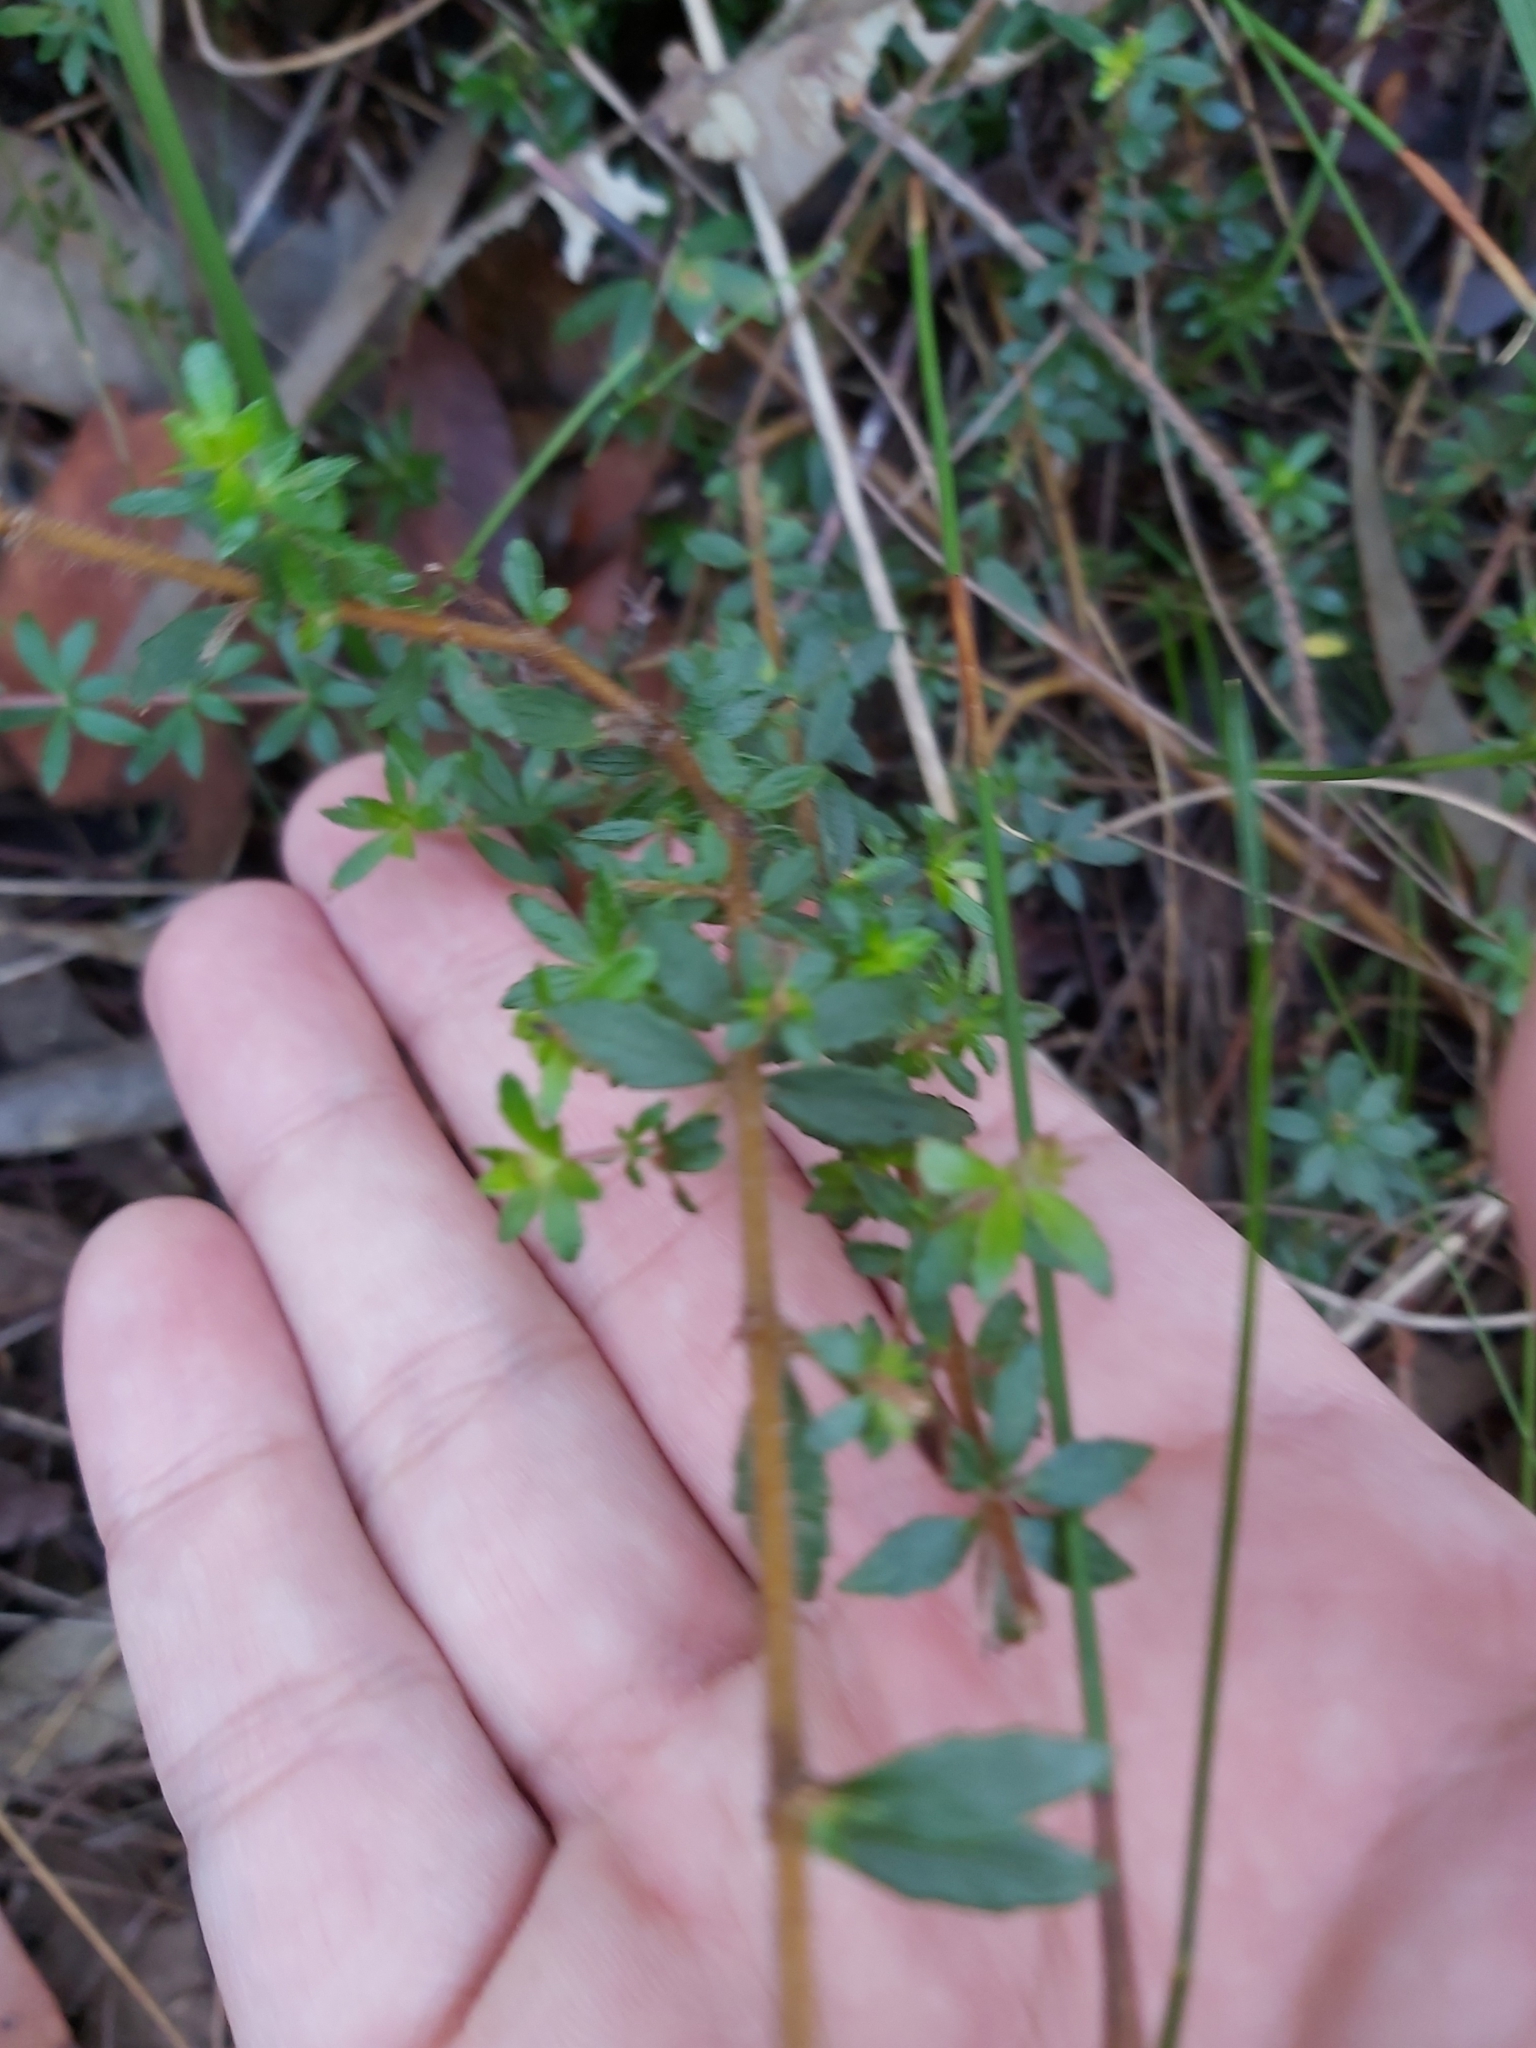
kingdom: Plantae
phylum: Tracheophyta
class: Magnoliopsida
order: Oxalidales
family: Cunoniaceae
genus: Bauera
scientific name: Bauera rubioides
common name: River-rose
